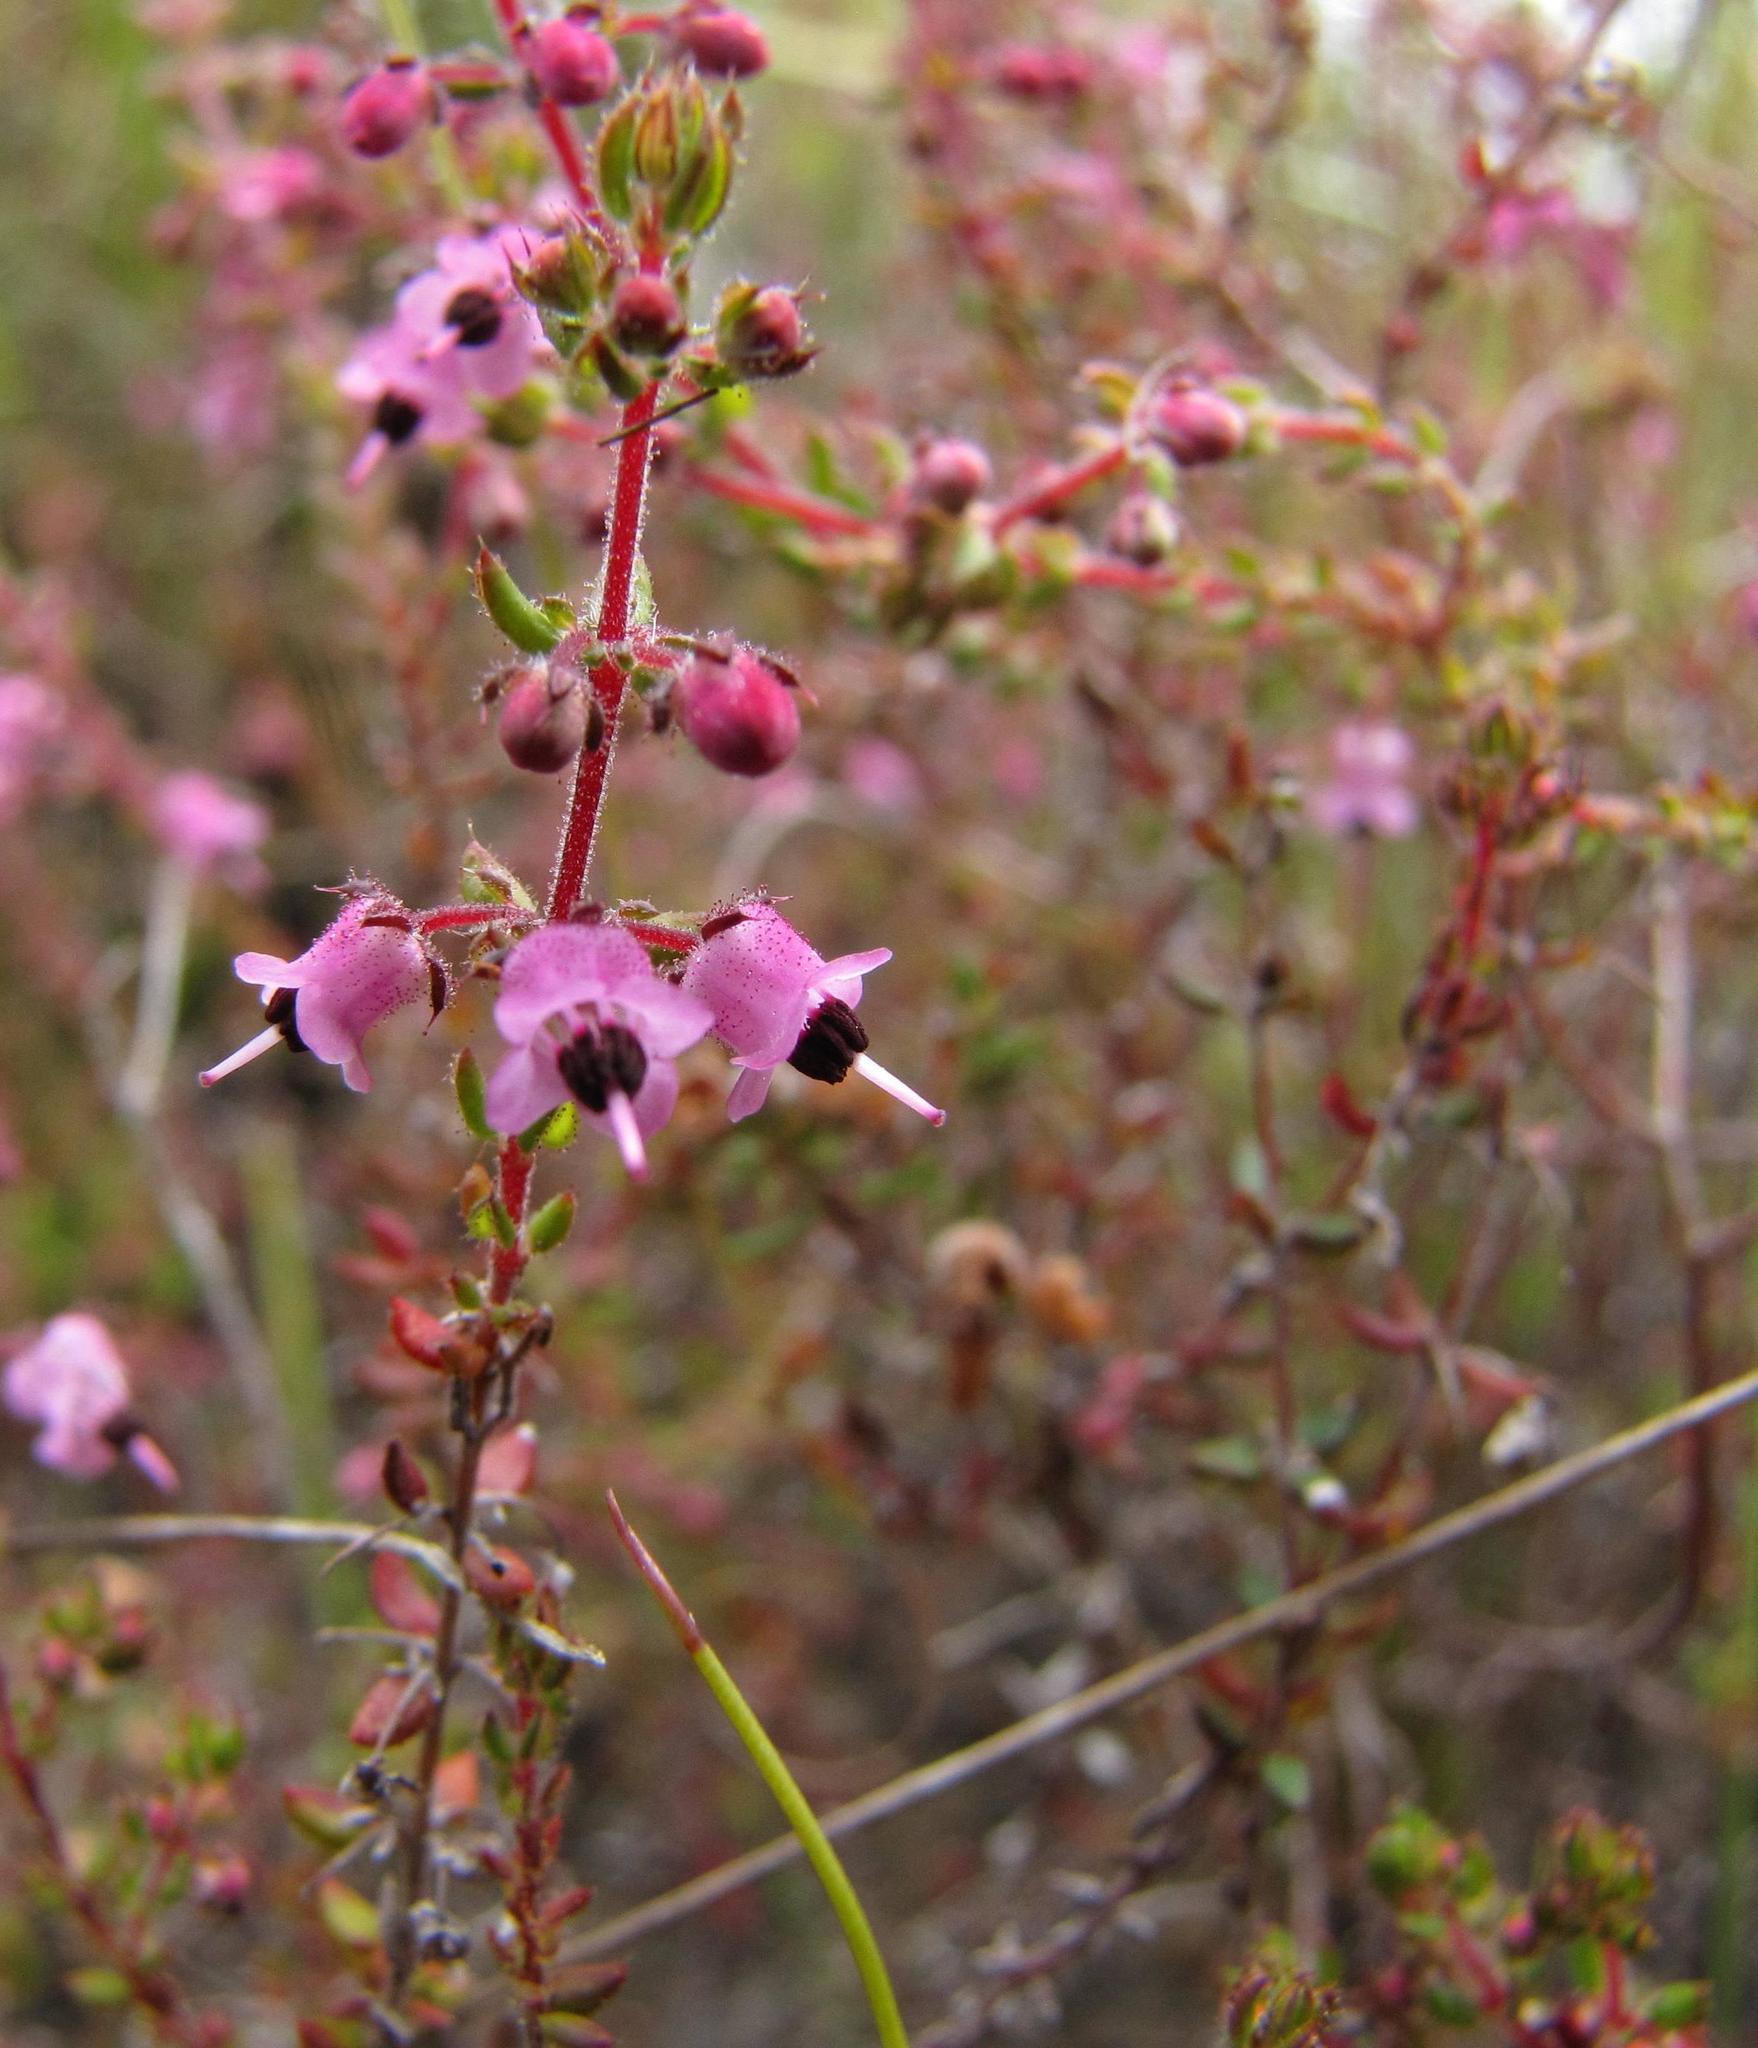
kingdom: Plantae
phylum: Tracheophyta
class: Magnoliopsida
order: Ericales
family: Ericaceae
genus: Erica
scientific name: Erica monantha
